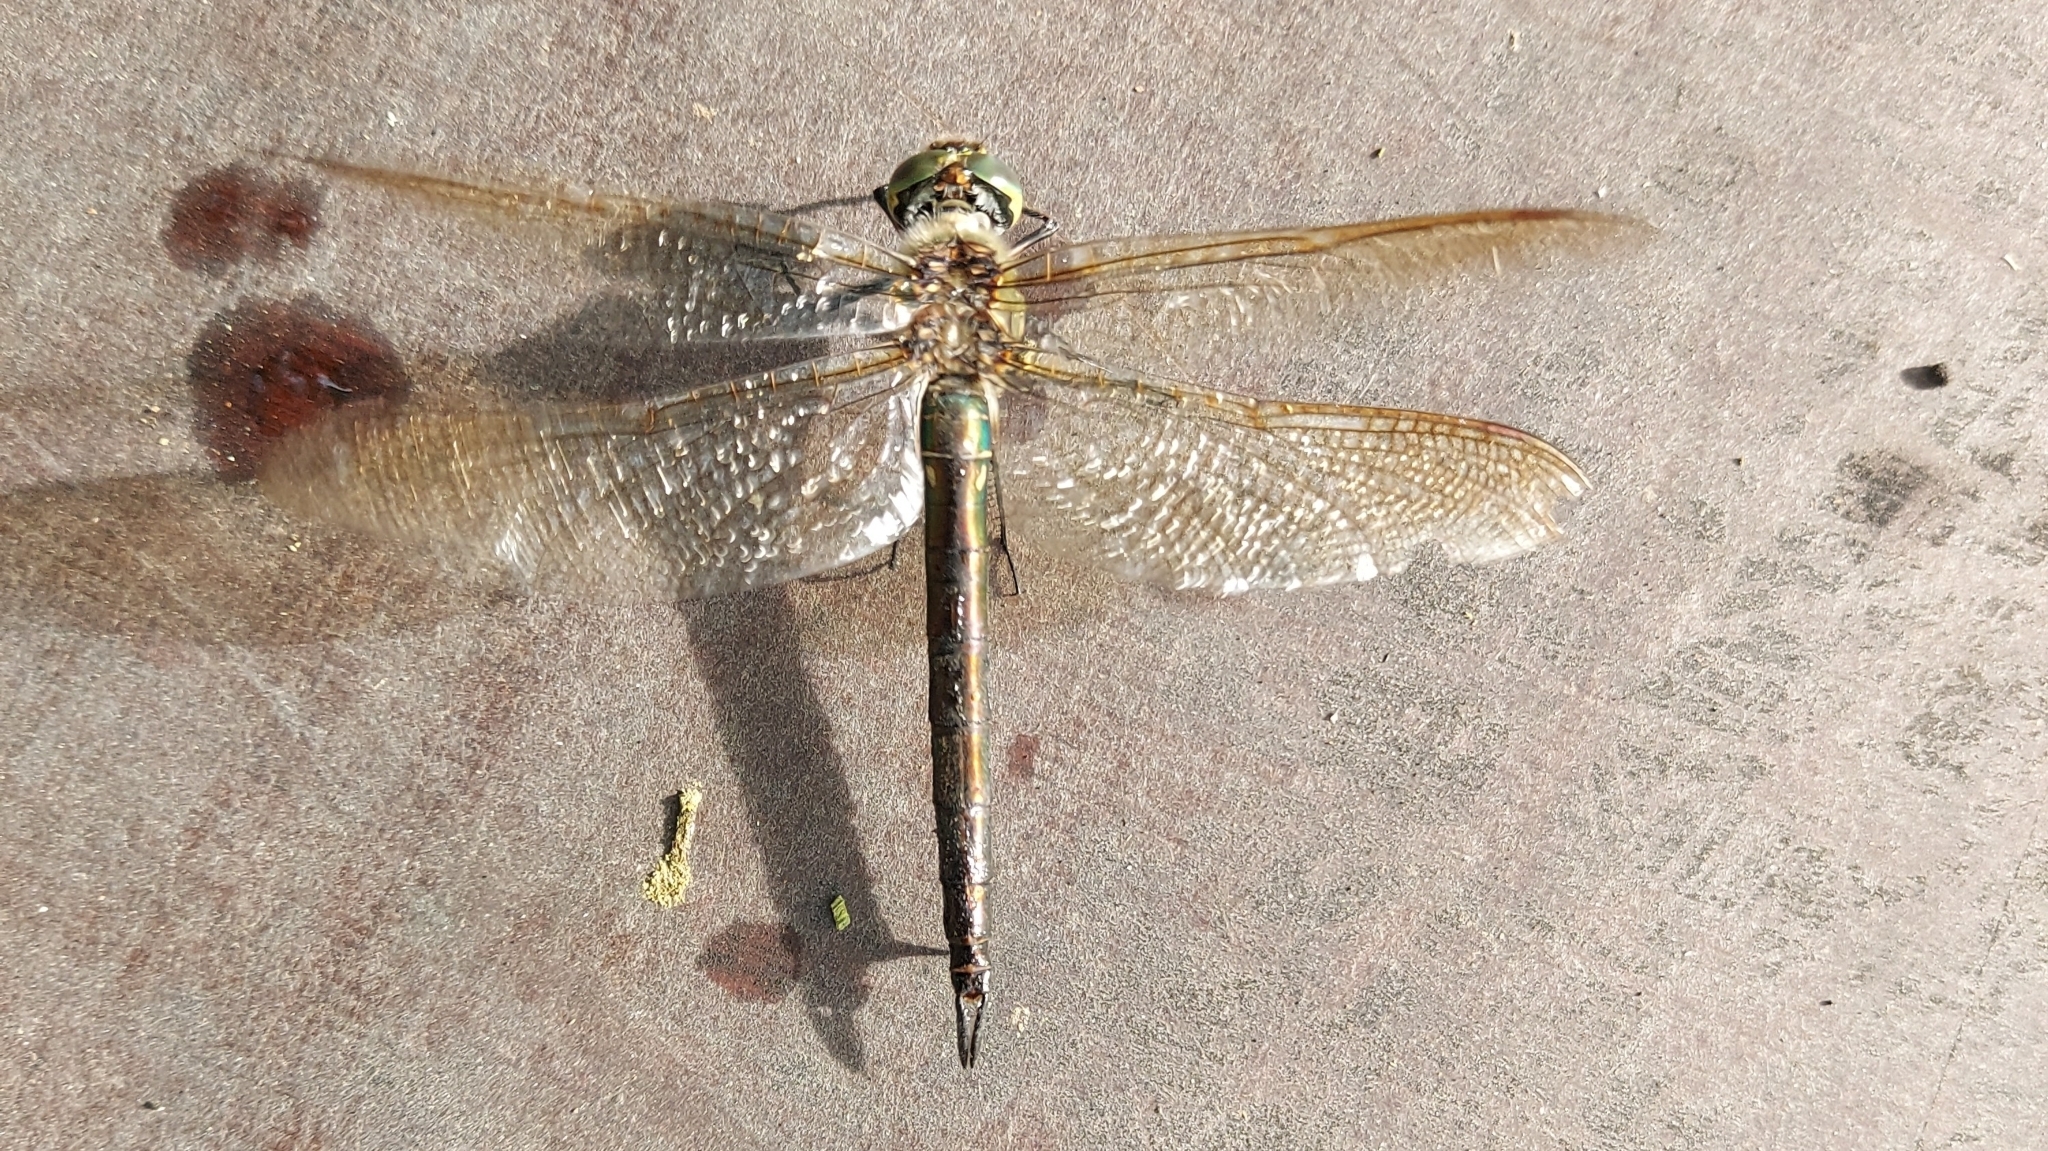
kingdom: Animalia
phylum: Arthropoda
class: Insecta
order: Odonata
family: Corduliidae
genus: Somatochlora
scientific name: Somatochlora metallica
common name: Brilliant emerald
